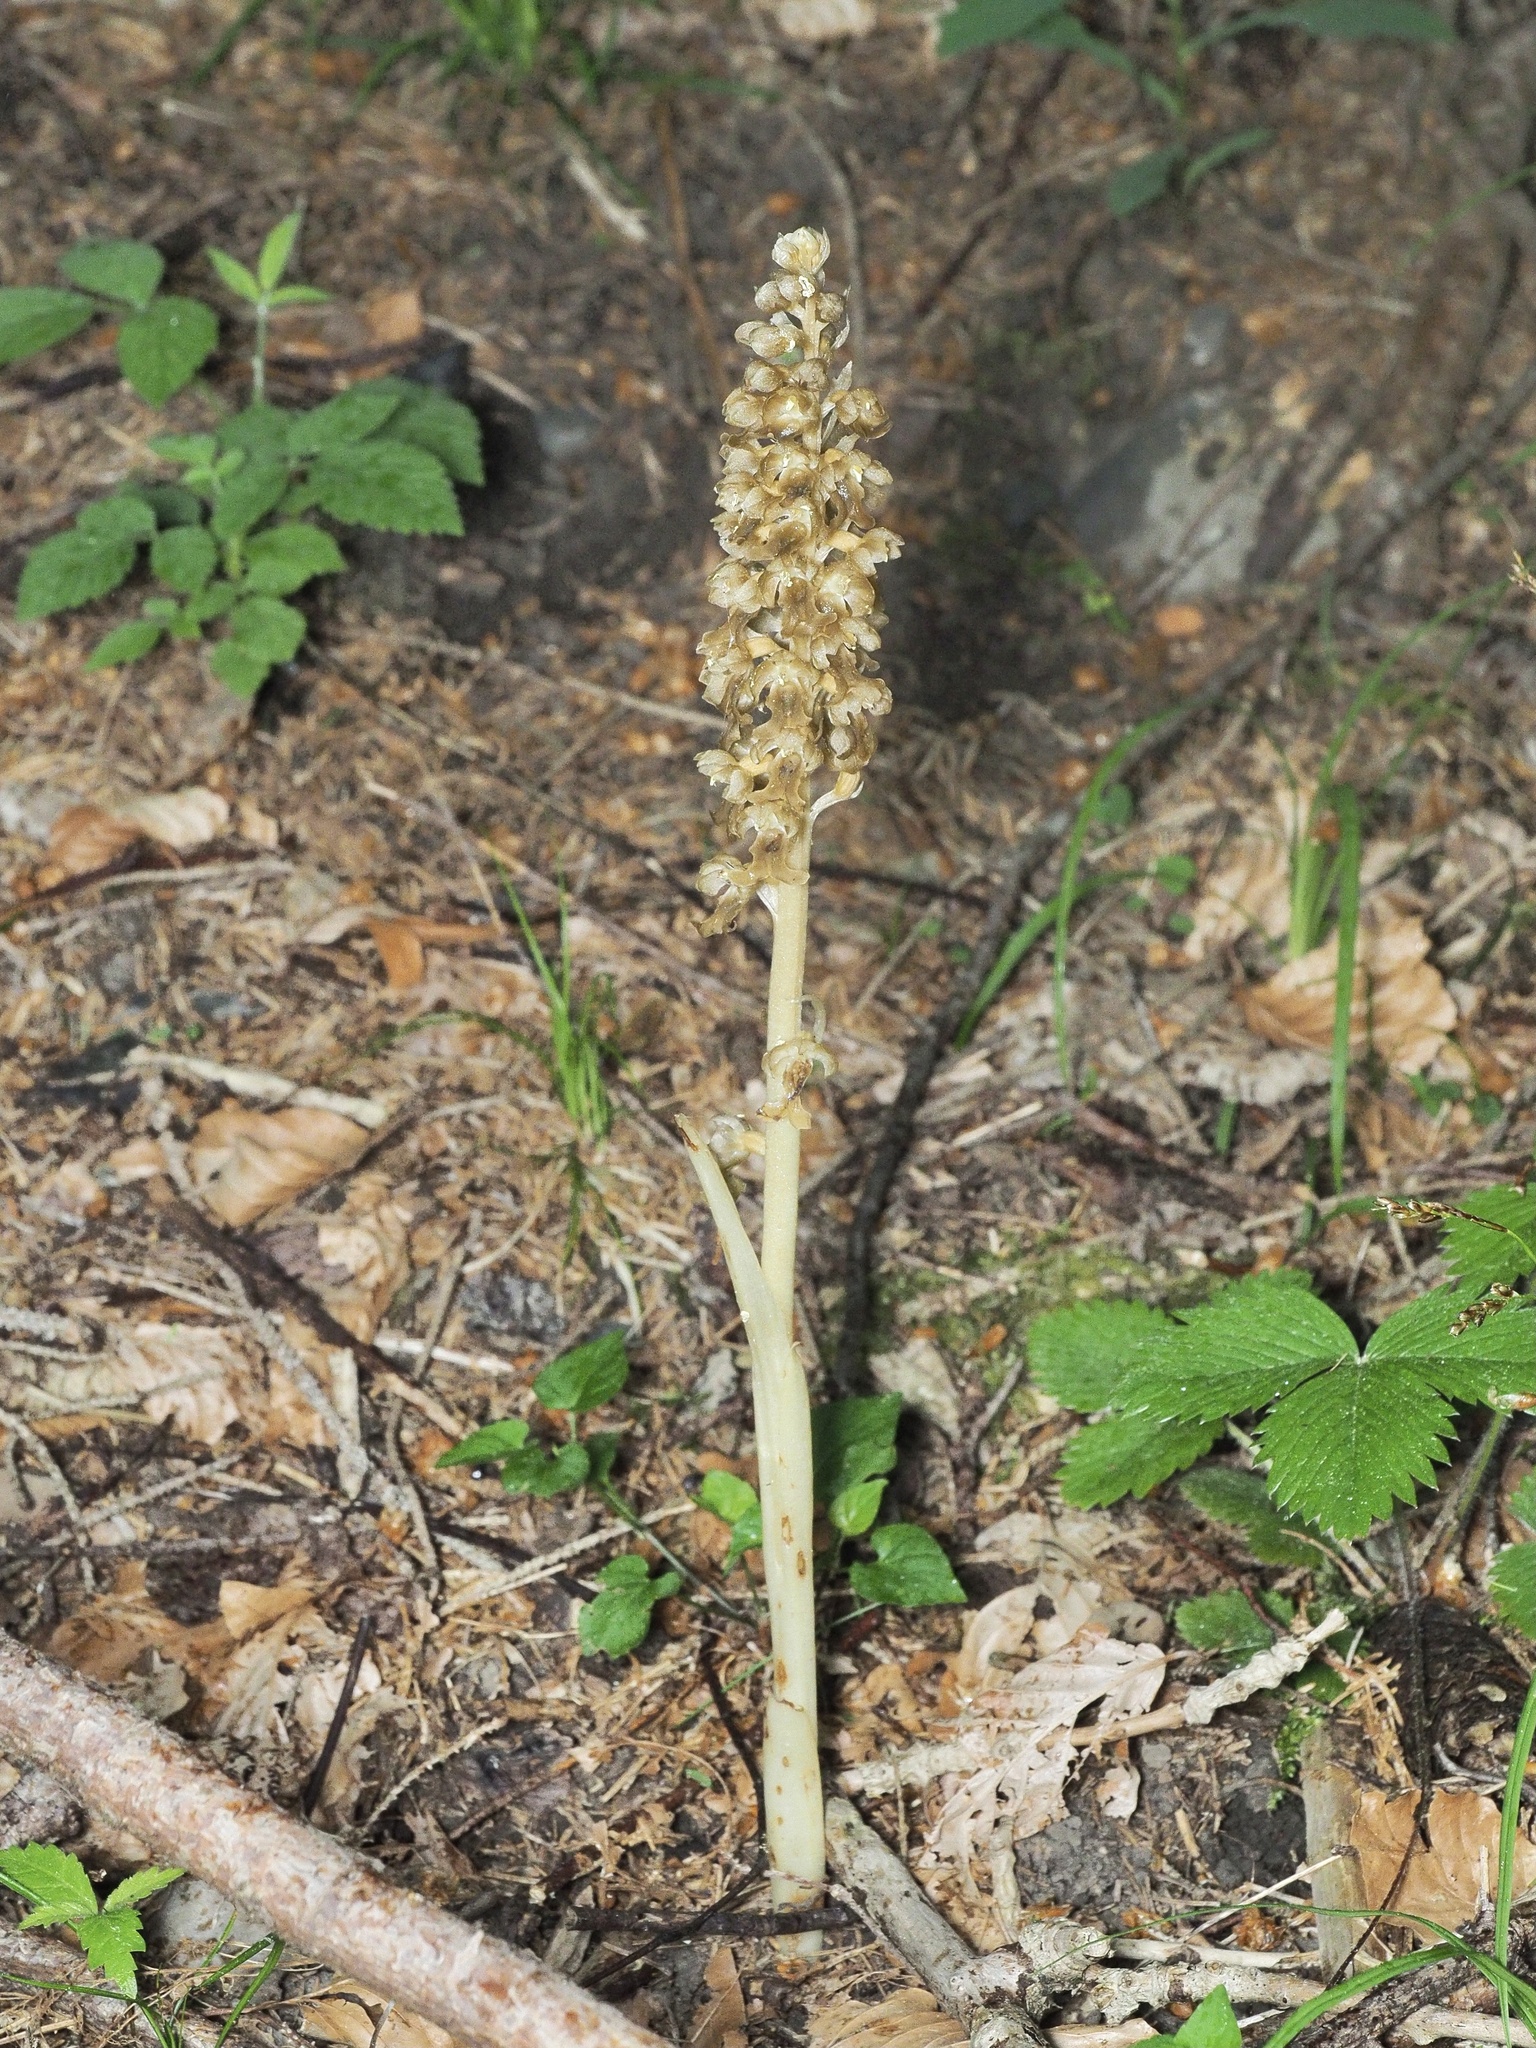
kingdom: Plantae
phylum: Tracheophyta
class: Liliopsida
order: Asparagales
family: Orchidaceae
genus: Neottia
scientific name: Neottia nidus-avis
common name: Bird's-nest orchid
